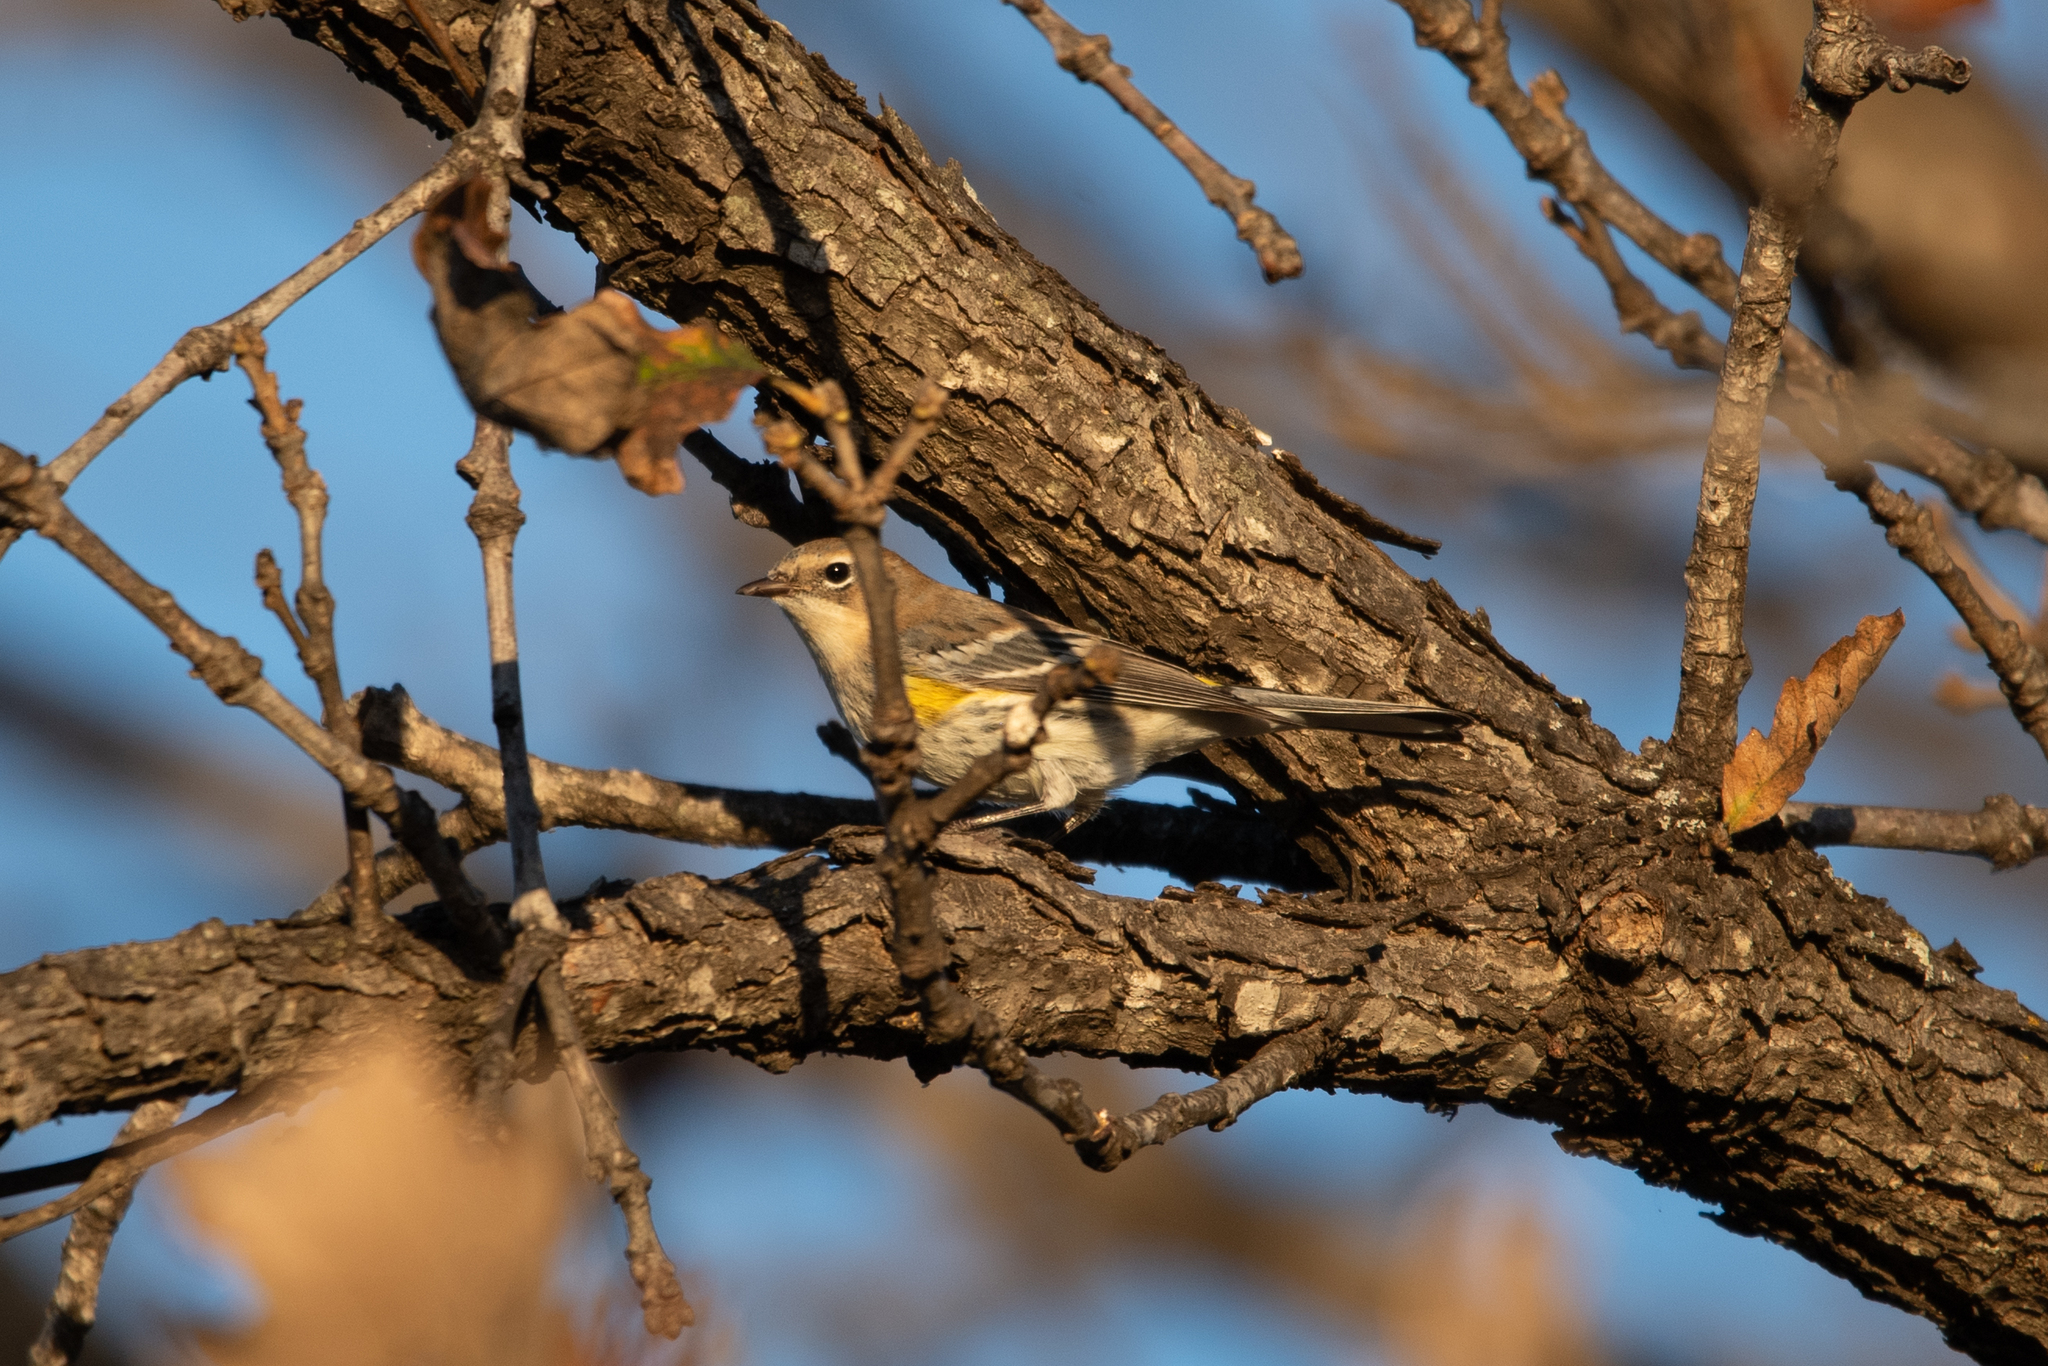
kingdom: Animalia
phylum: Chordata
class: Aves
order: Passeriformes
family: Parulidae
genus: Setophaga
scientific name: Setophaga coronata
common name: Myrtle warbler
